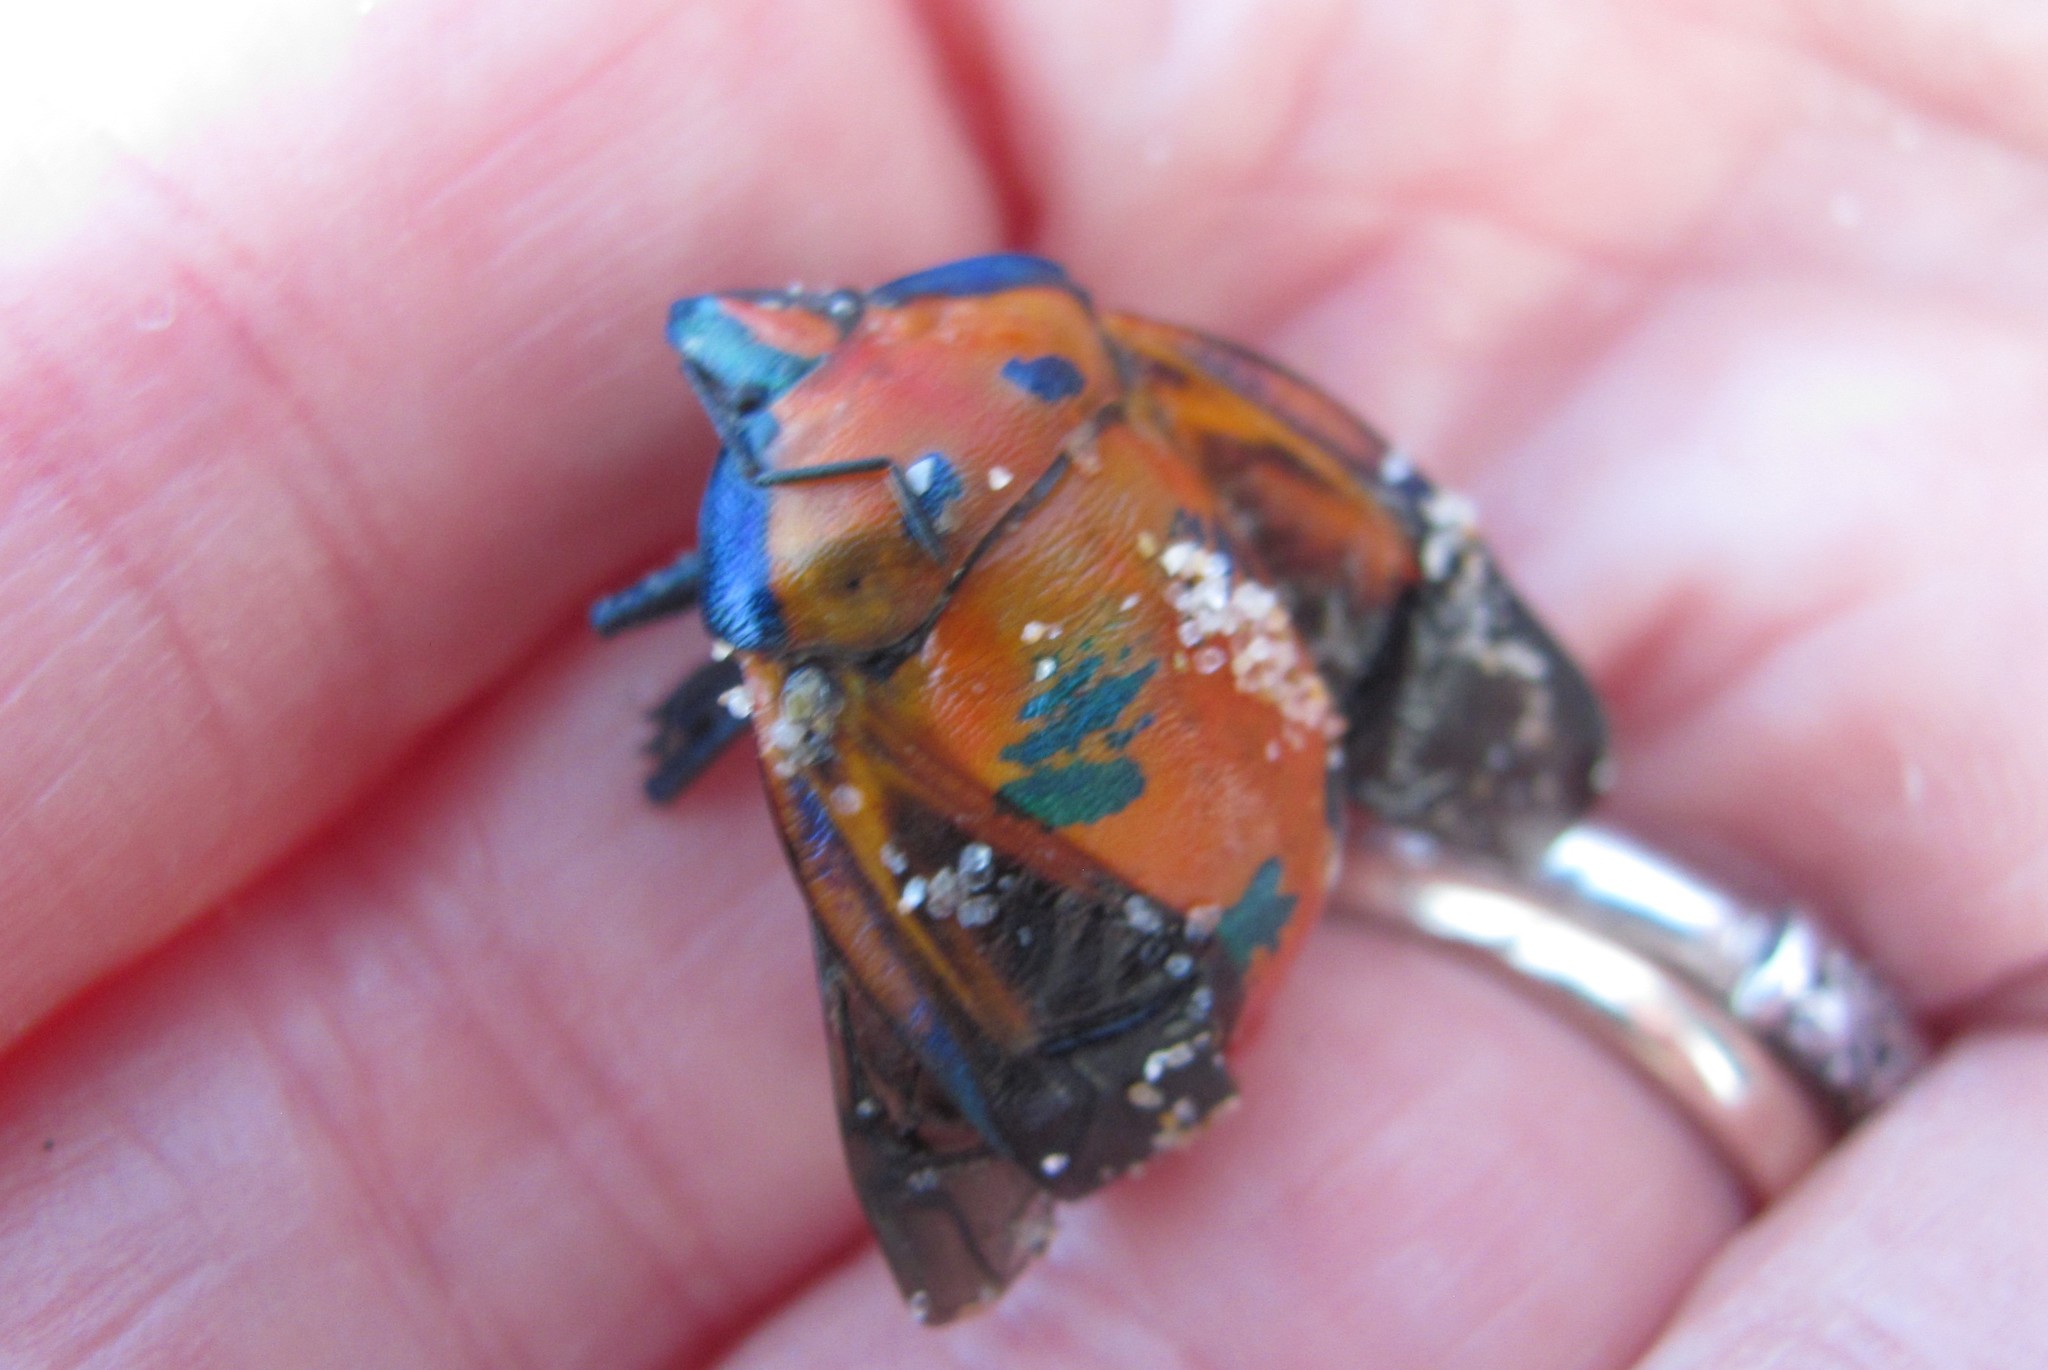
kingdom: Animalia
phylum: Arthropoda
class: Insecta
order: Hemiptera
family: Scutelleridae
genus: Tectocoris
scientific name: Tectocoris diophthalmus
